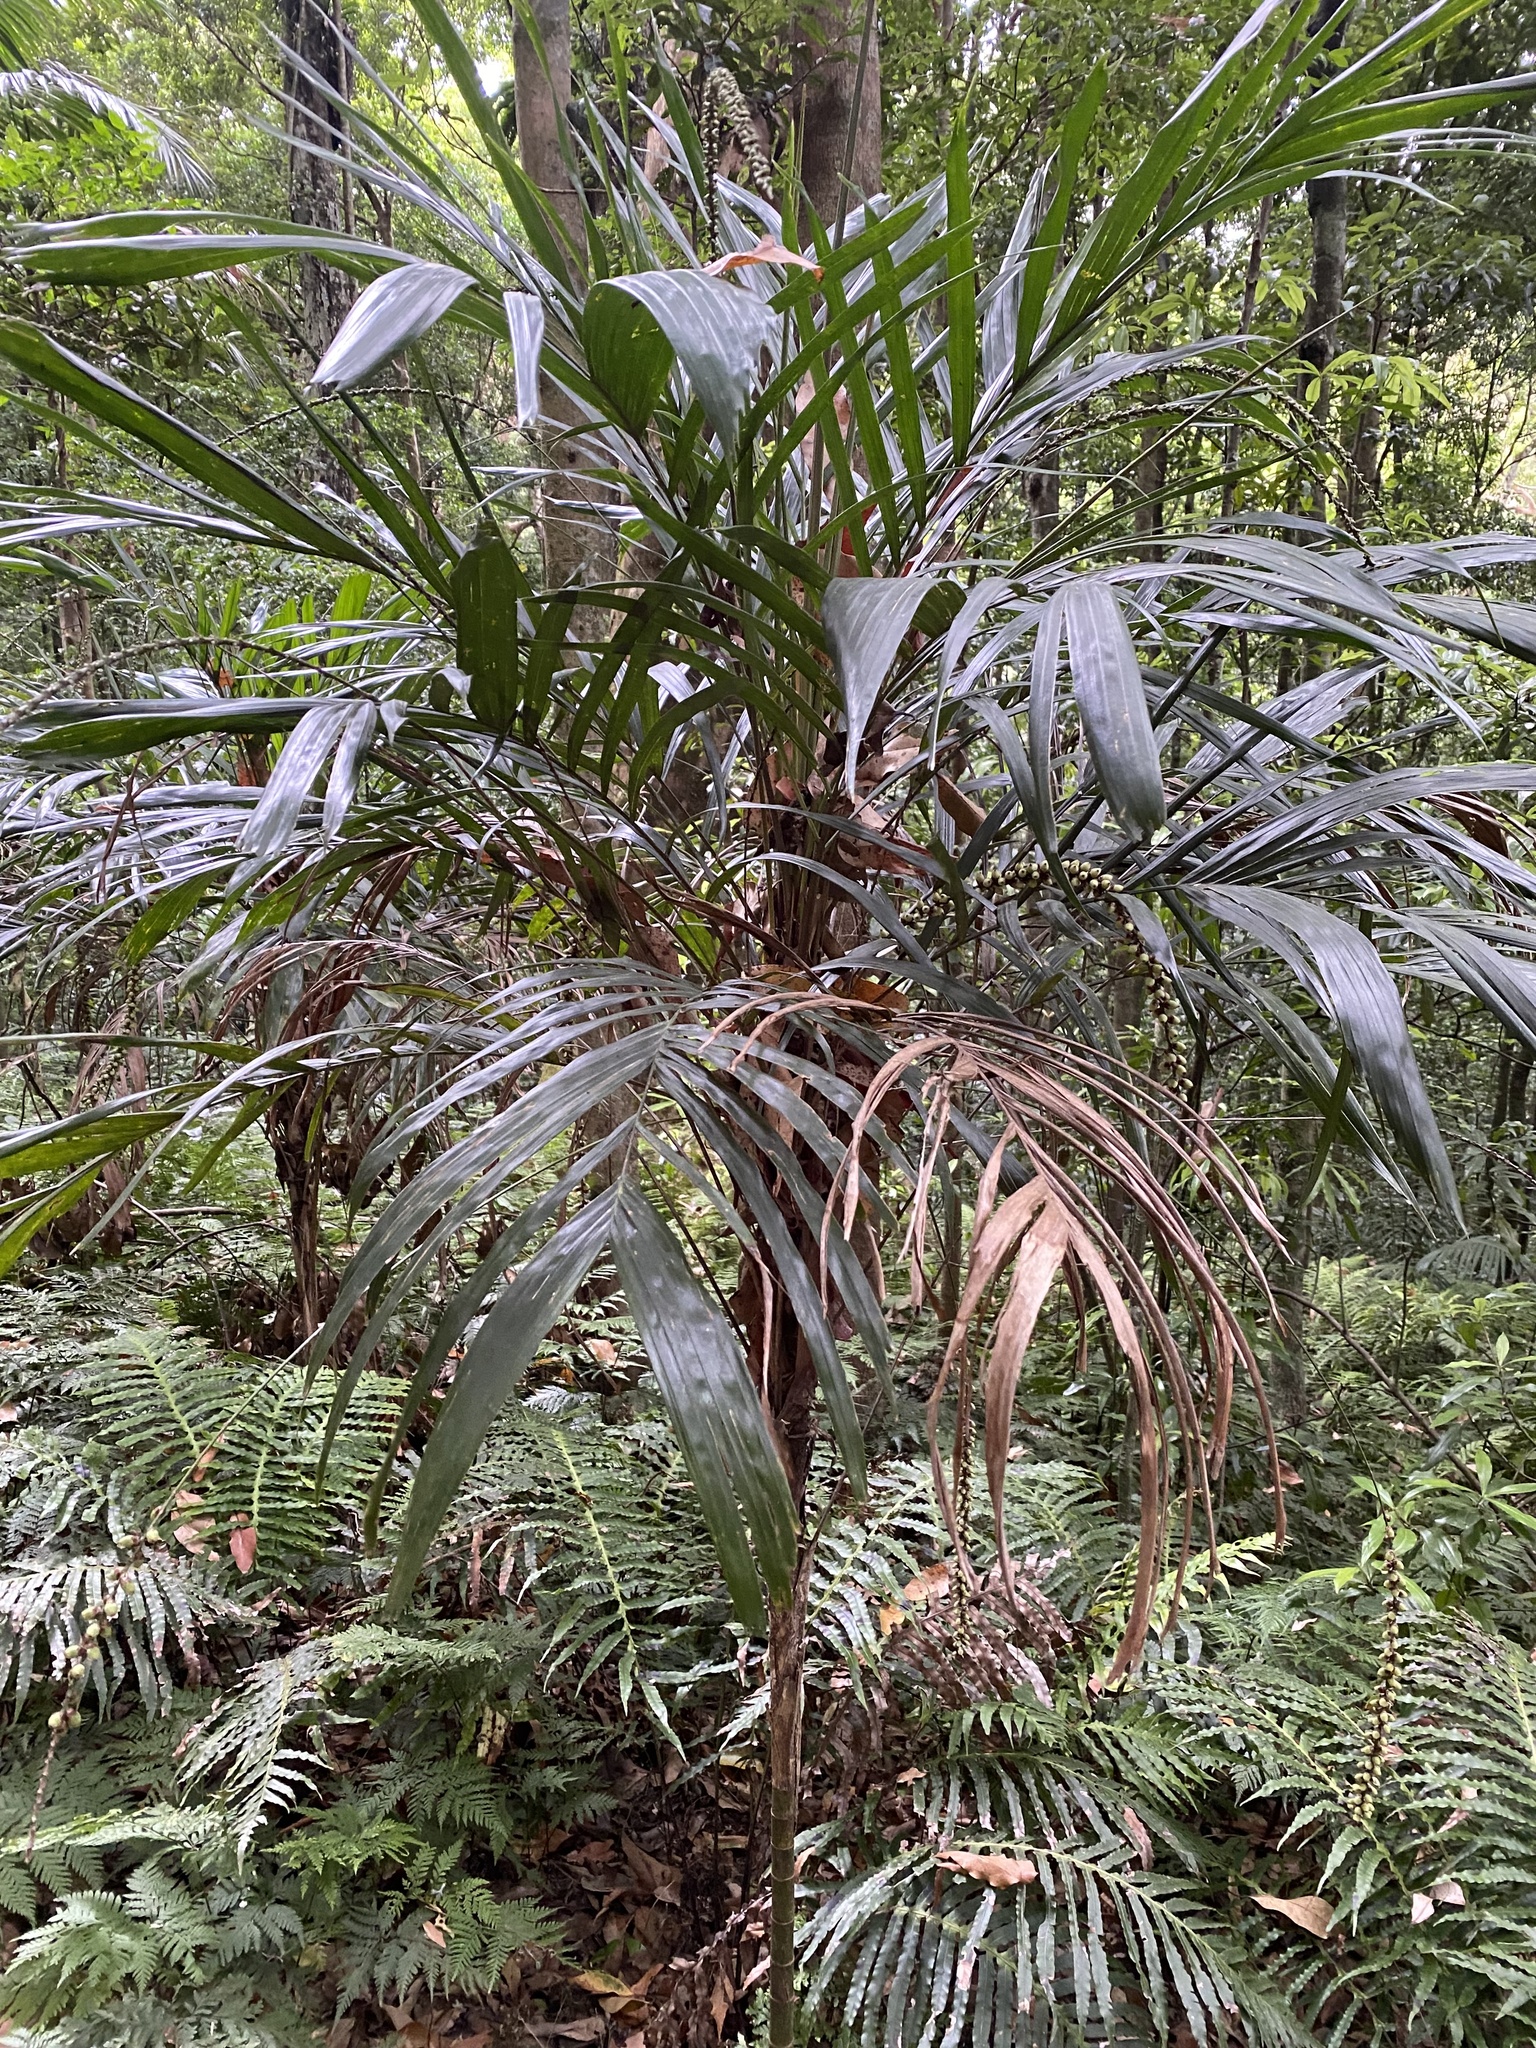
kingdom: Plantae
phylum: Tracheophyta
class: Liliopsida
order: Arecales
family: Arecaceae
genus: Linospadix
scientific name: Linospadix monostachyus
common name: Walking-stick palm
